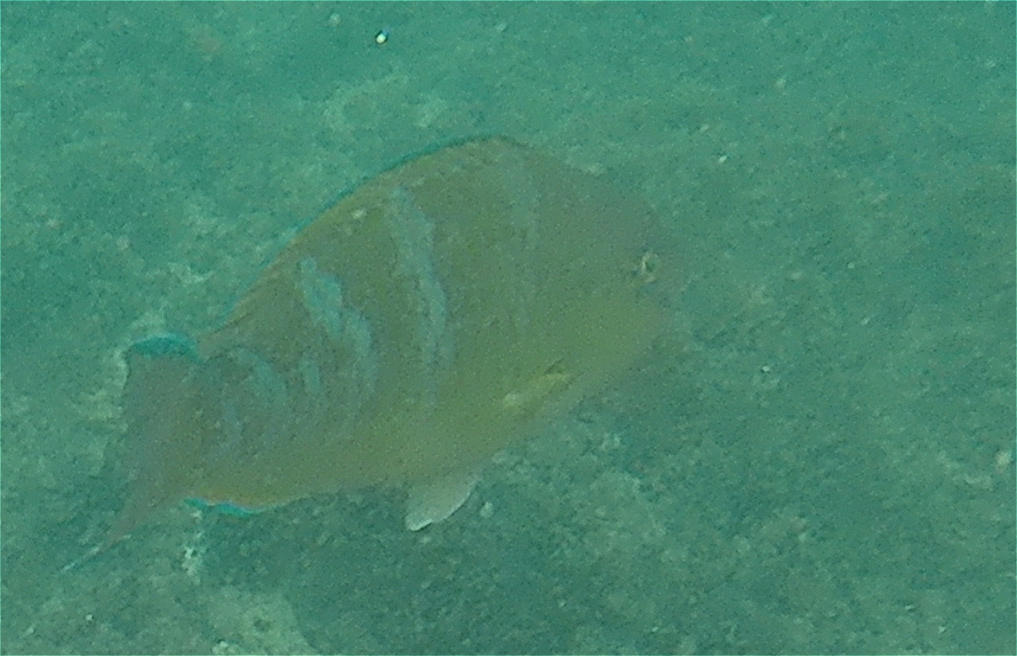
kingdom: Animalia
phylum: Chordata
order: Perciformes
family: Scaridae
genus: Scarus
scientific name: Scarus ghobban
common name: Blue-barred parrotfish
